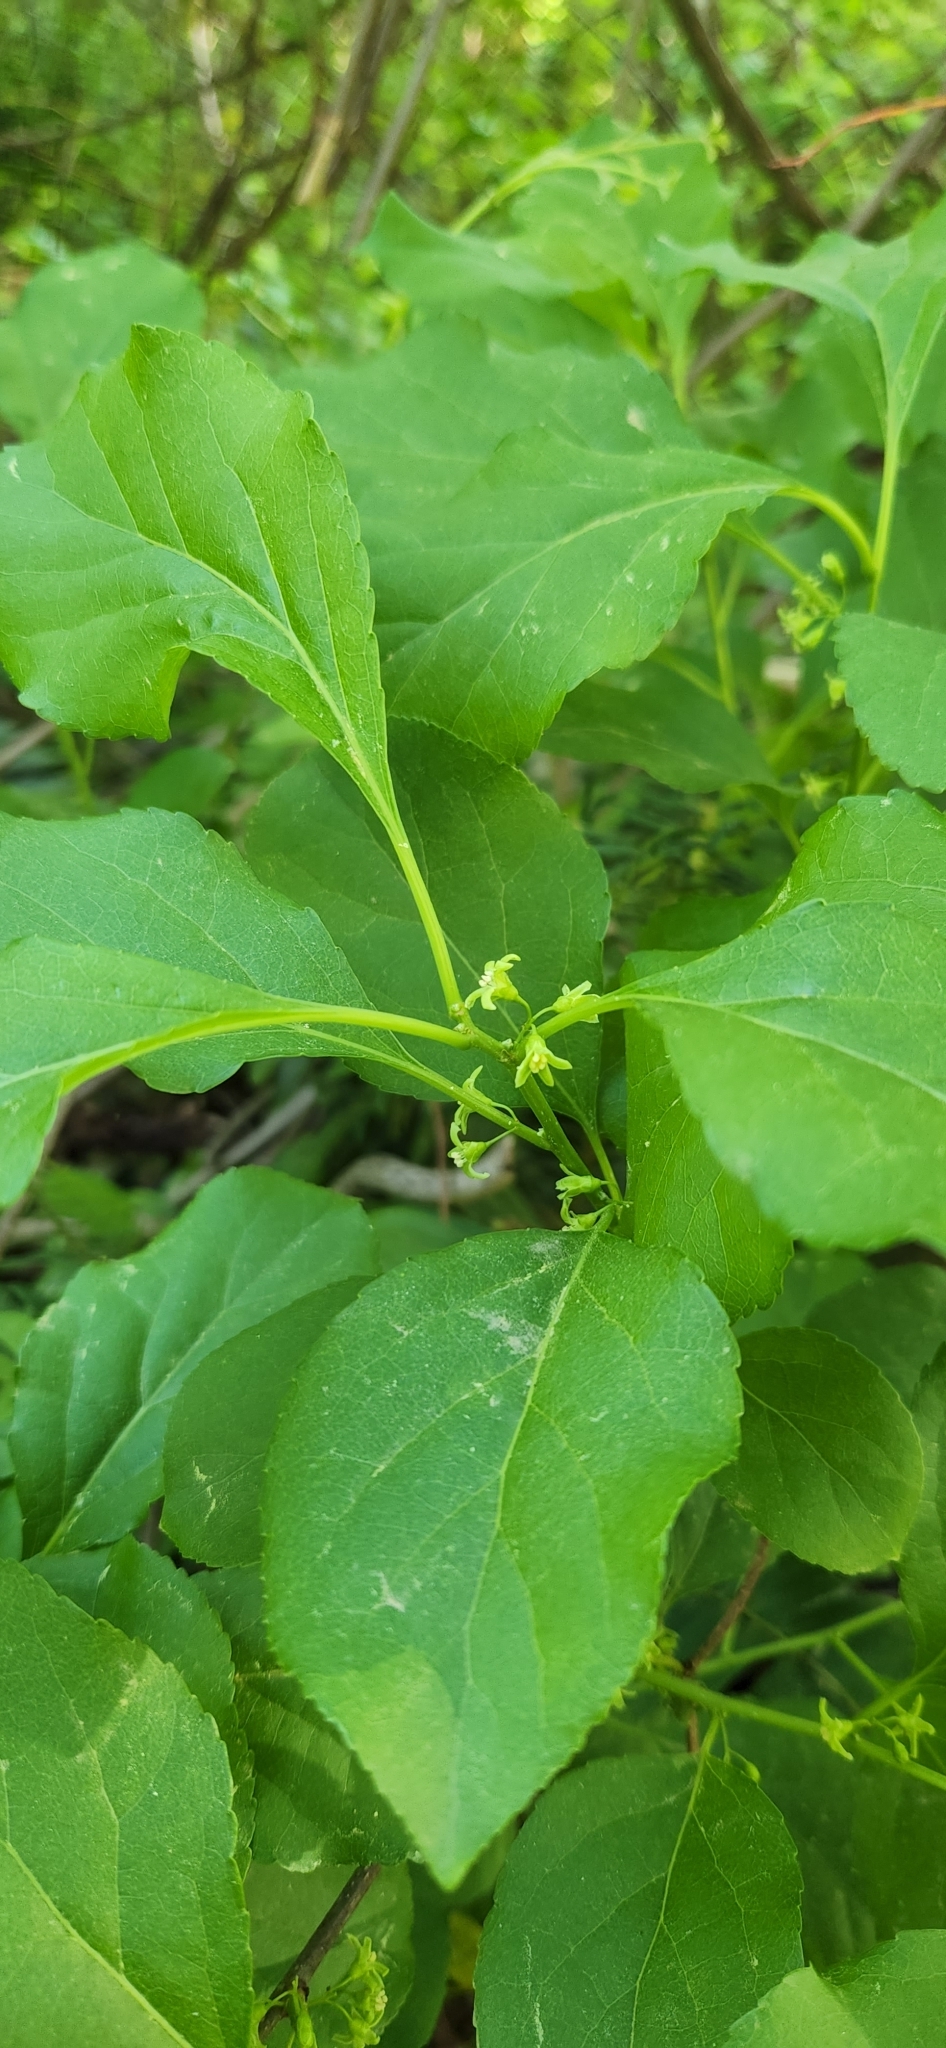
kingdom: Plantae
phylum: Tracheophyta
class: Magnoliopsida
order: Celastrales
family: Celastraceae
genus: Celastrus
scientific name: Celastrus orbiculatus
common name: Oriental bittersweet
